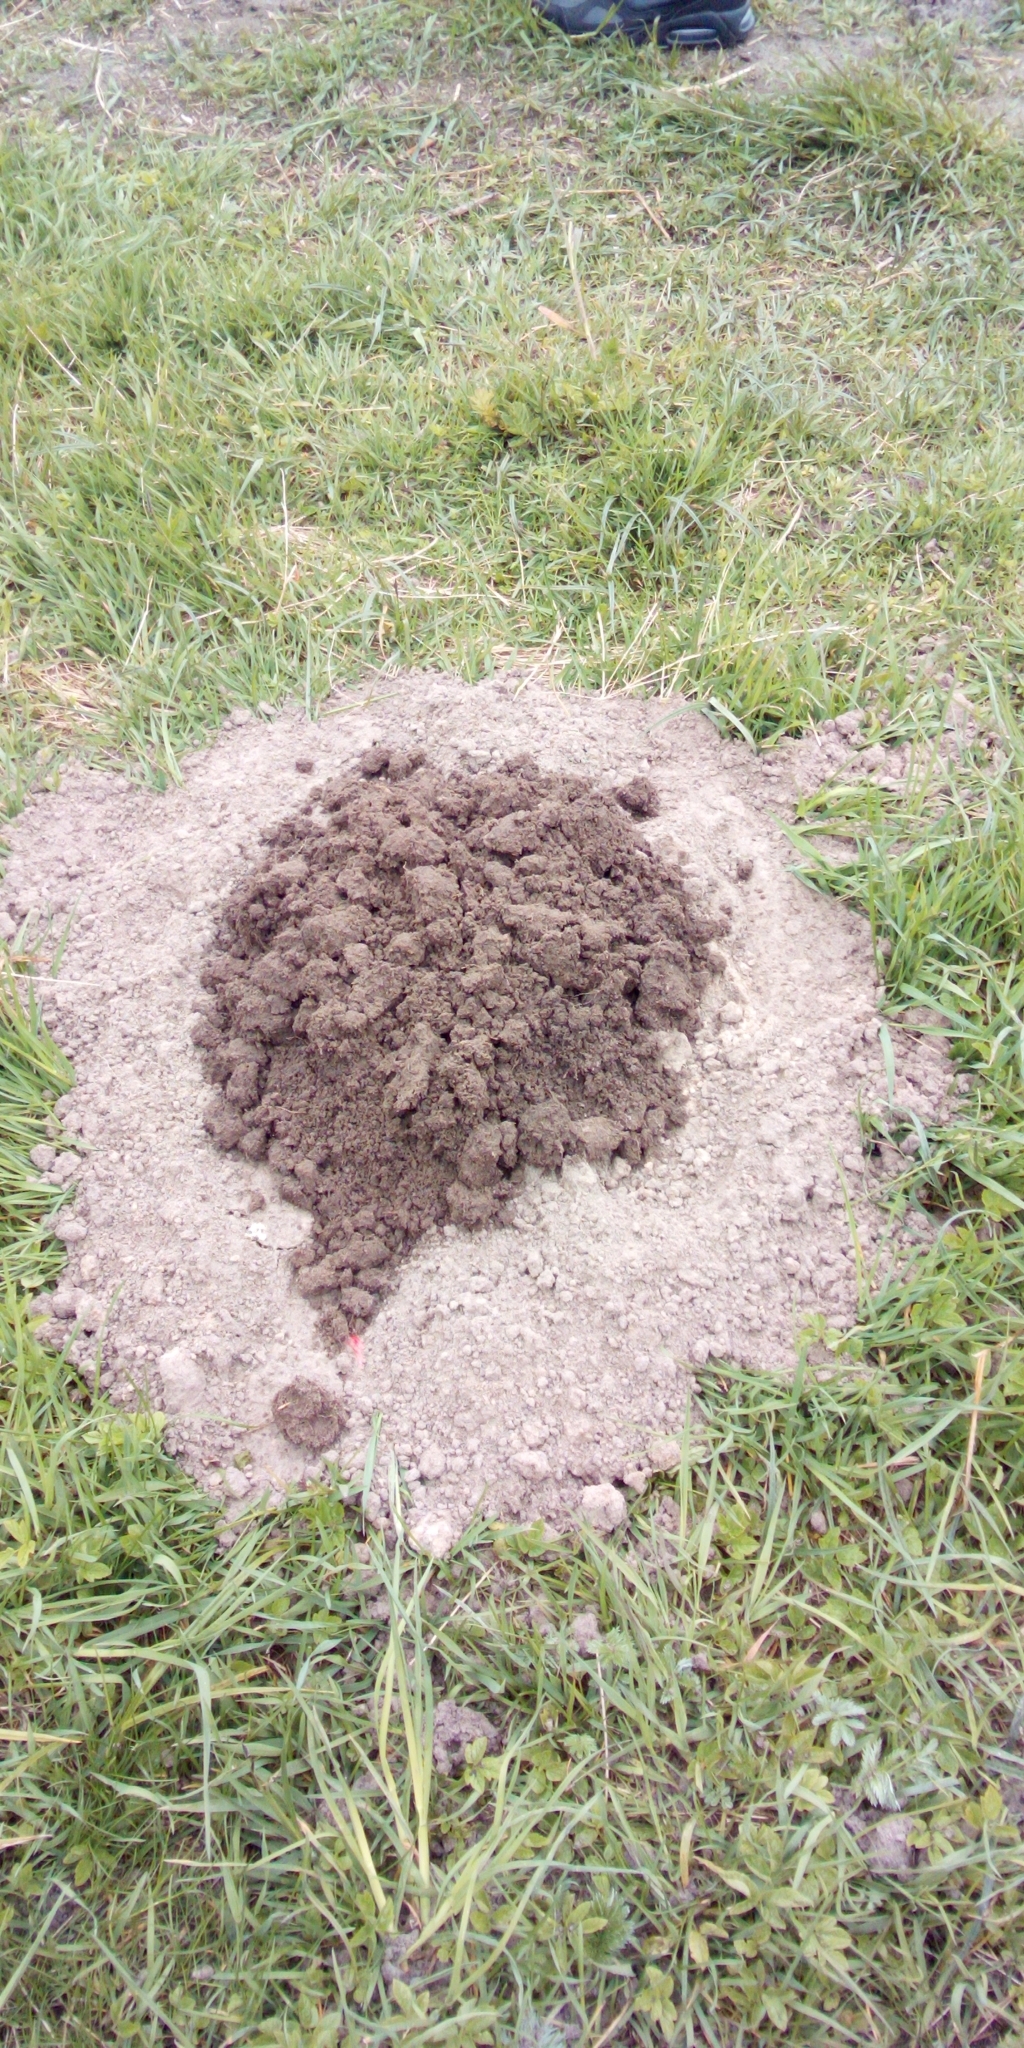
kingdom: Animalia
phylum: Chordata
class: Mammalia
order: Soricomorpha
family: Talpidae
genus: Talpa
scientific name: Talpa europaea
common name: European mole
